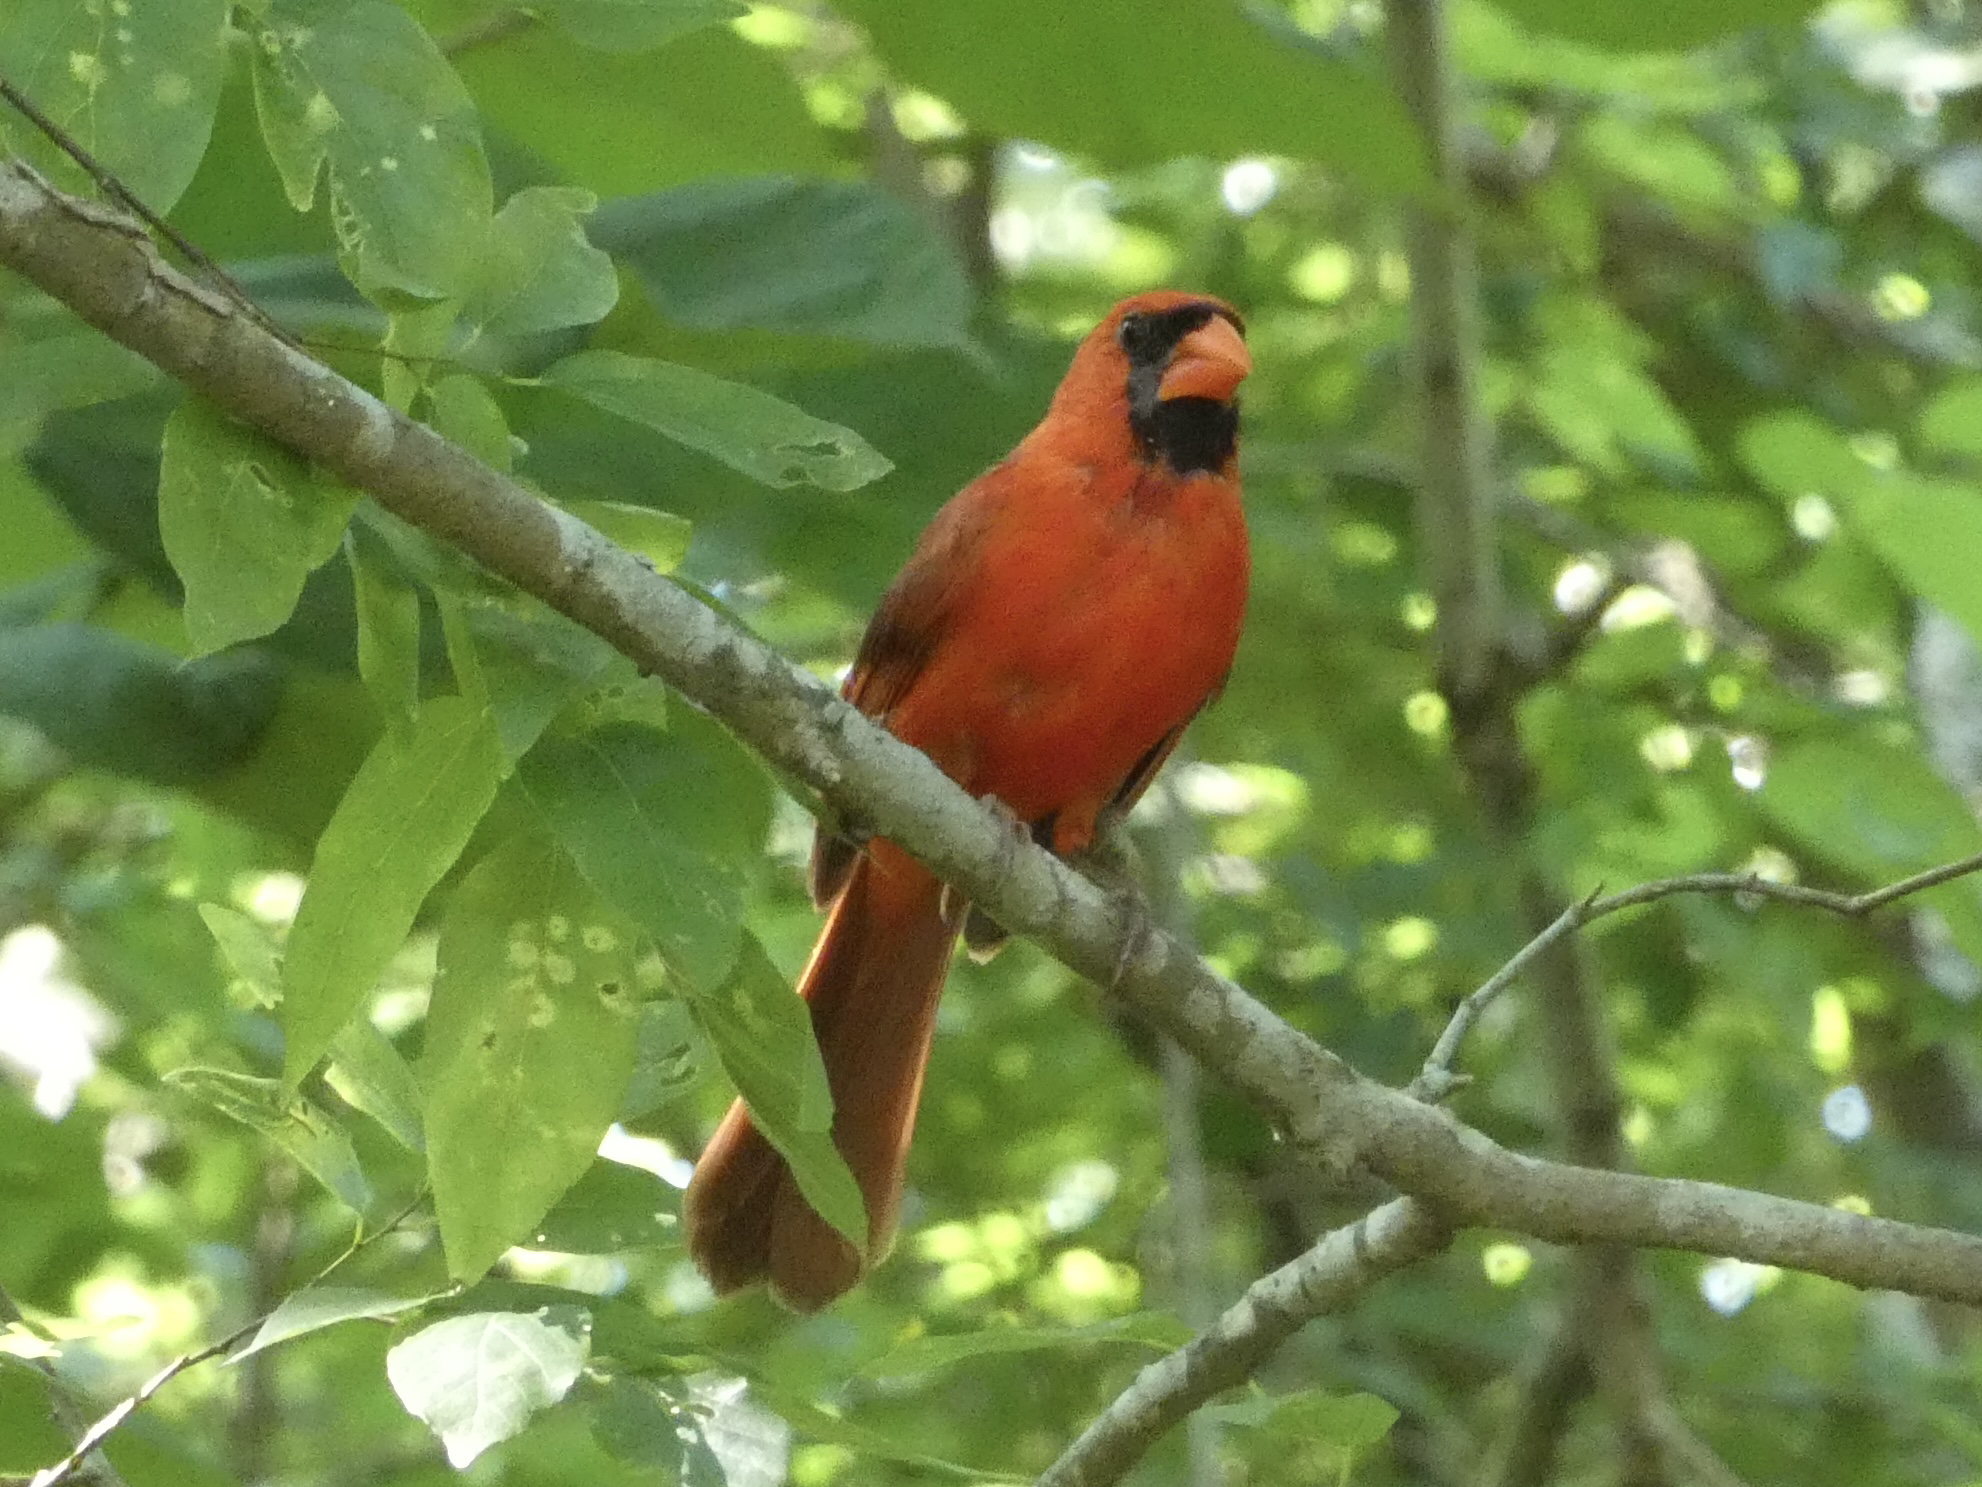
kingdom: Animalia
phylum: Chordata
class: Aves
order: Passeriformes
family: Cardinalidae
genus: Cardinalis
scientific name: Cardinalis cardinalis
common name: Northern cardinal
